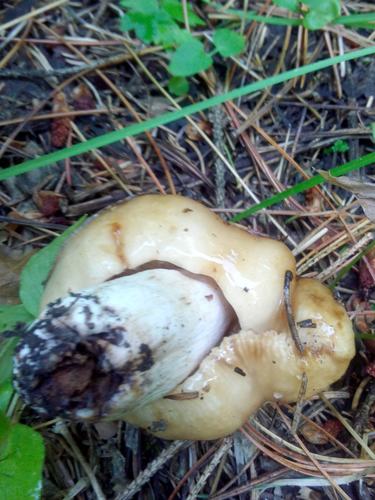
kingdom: Fungi
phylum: Basidiomycota
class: Agaricomycetes
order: Russulales
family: Russulaceae
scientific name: Russulaceae
